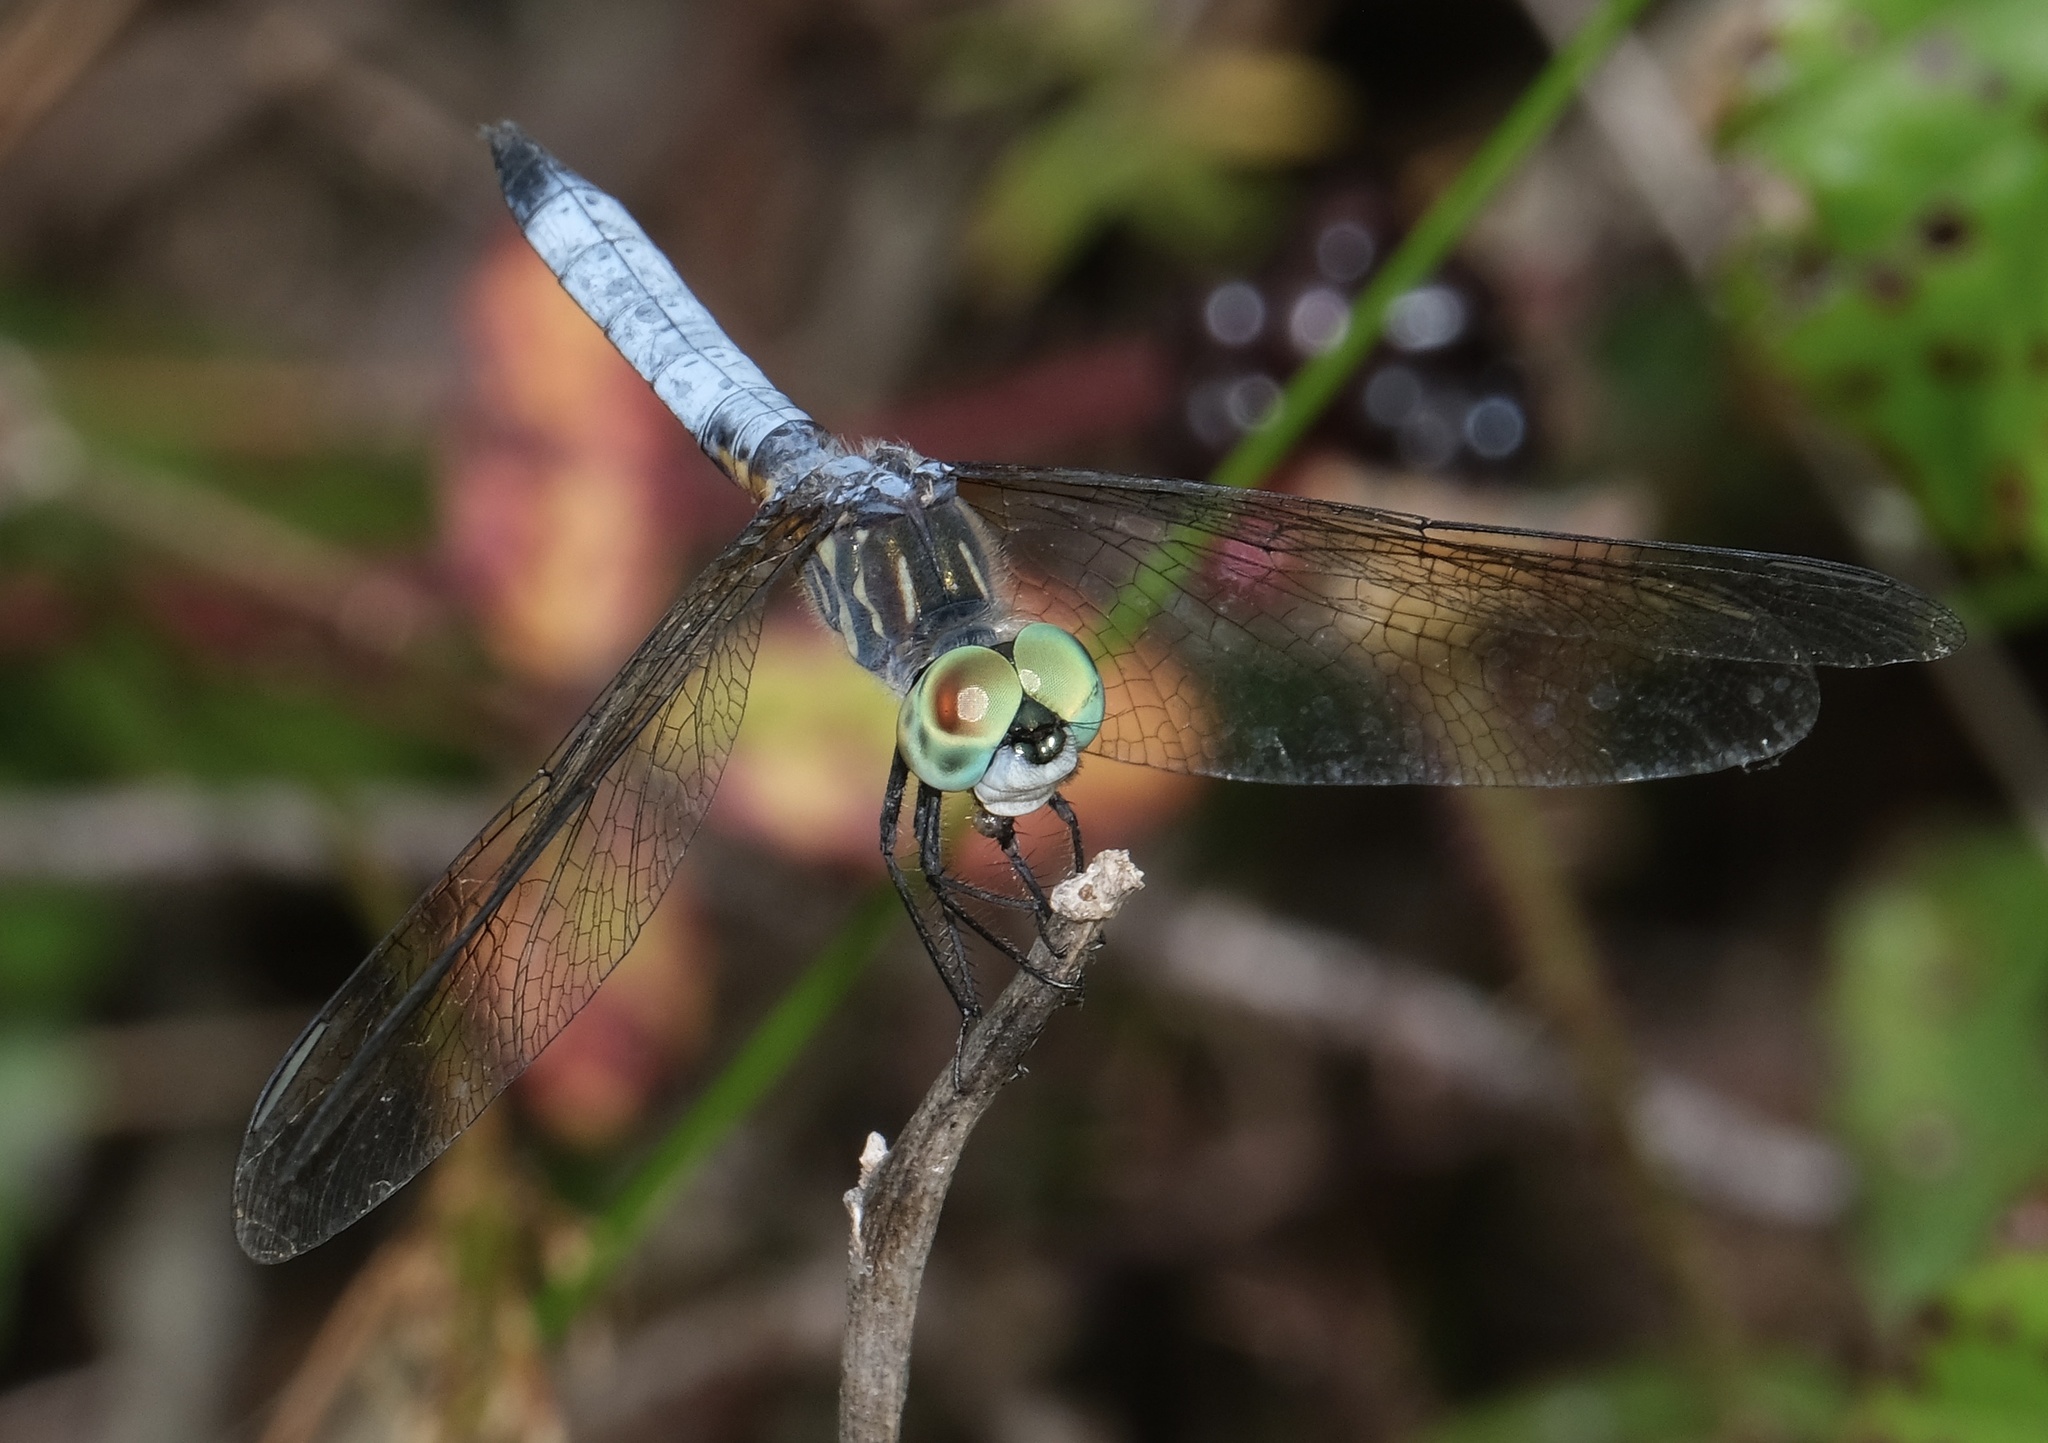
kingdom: Animalia
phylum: Arthropoda
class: Insecta
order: Odonata
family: Libellulidae
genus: Pachydiplax
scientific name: Pachydiplax longipennis
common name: Blue dasher
